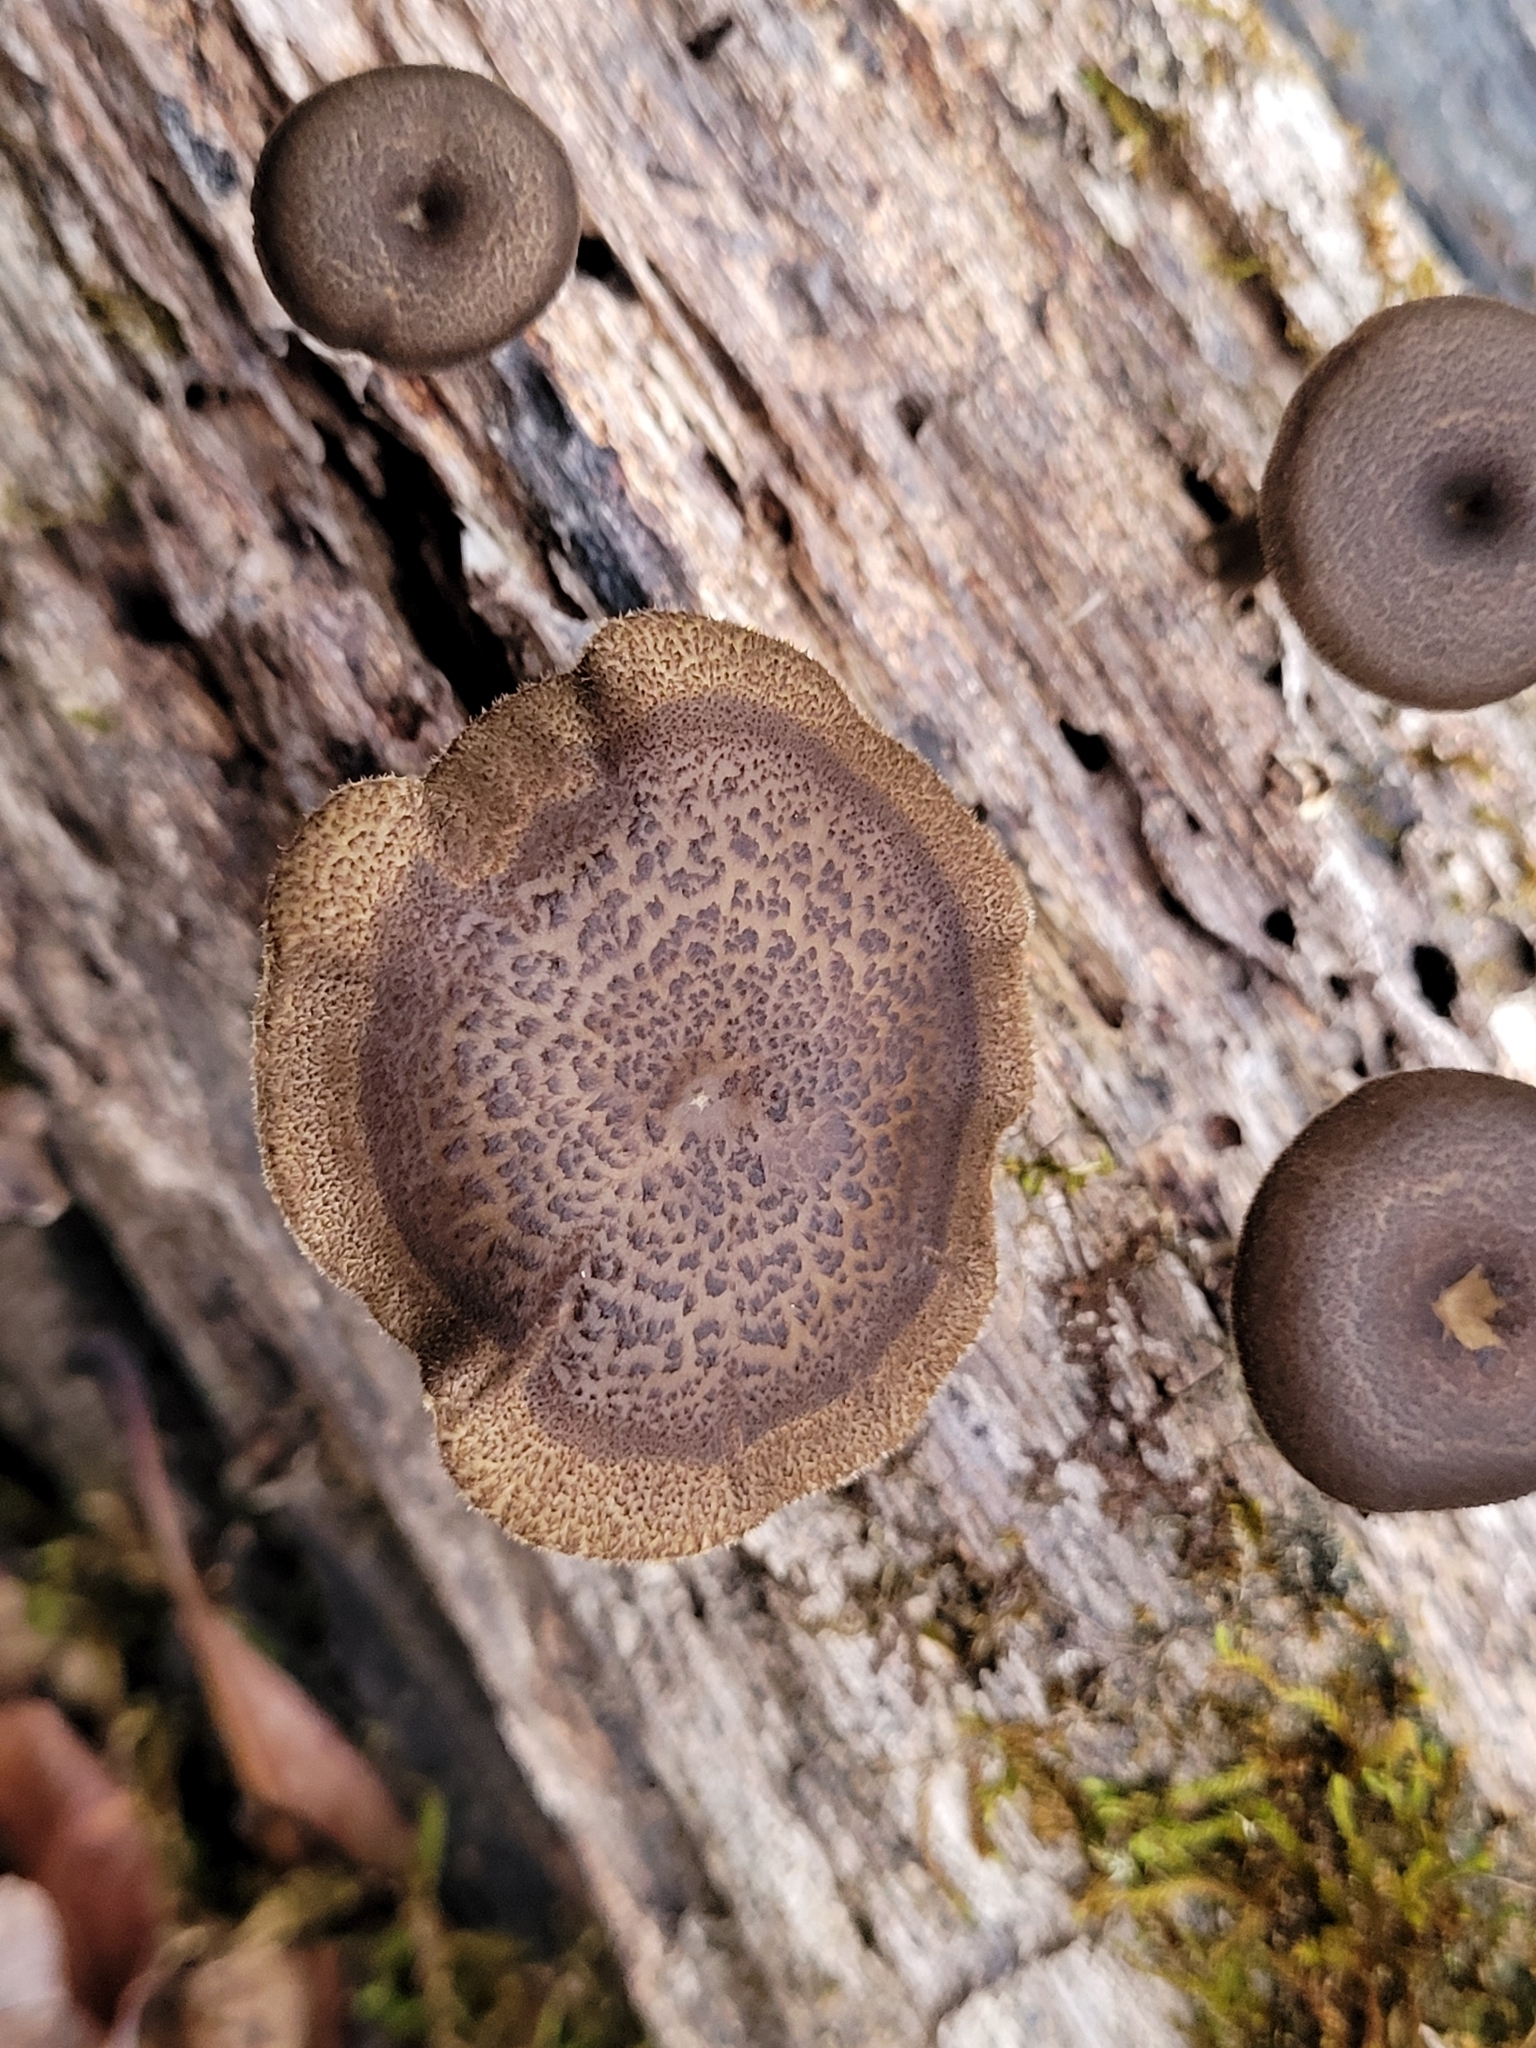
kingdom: Fungi
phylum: Basidiomycota
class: Agaricomycetes
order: Polyporales
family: Polyporaceae
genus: Lentinus
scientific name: Lentinus arcularius
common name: Spring polypore
